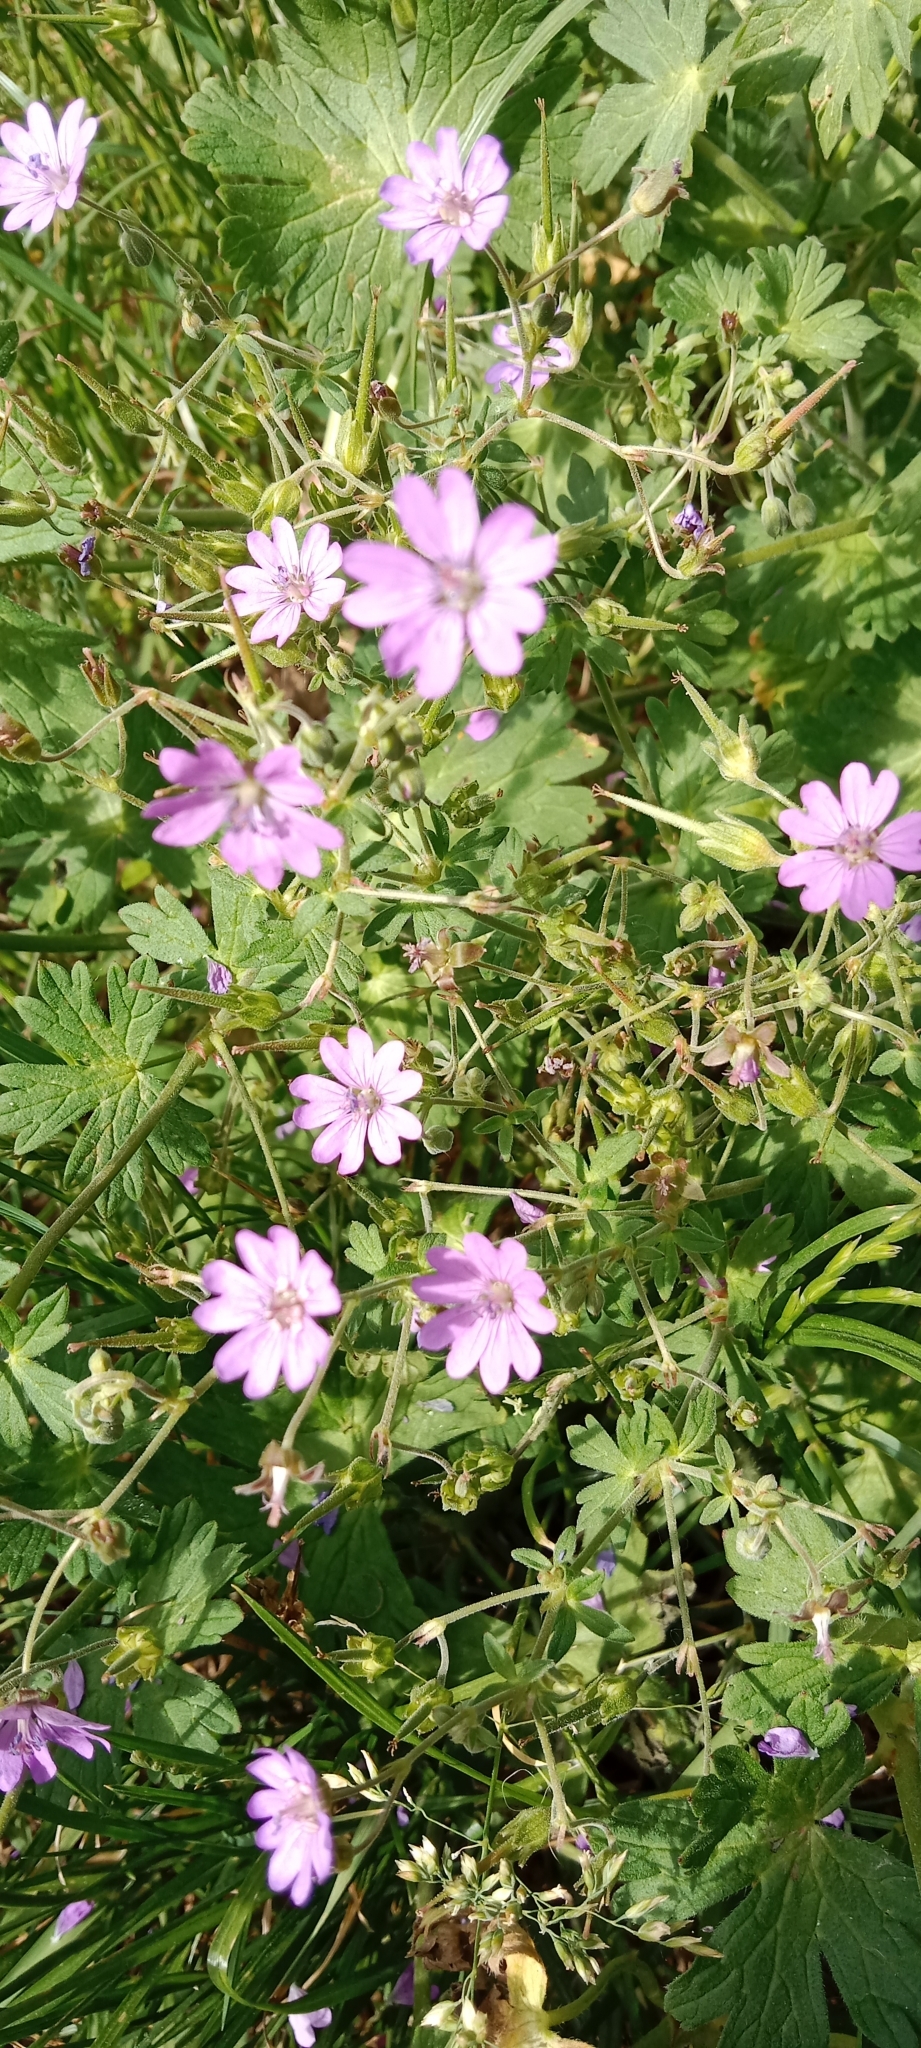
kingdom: Plantae
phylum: Tracheophyta
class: Magnoliopsida
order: Geraniales
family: Geraniaceae
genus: Geranium
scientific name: Geranium pyrenaicum
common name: Hedgerow crane's-bill
